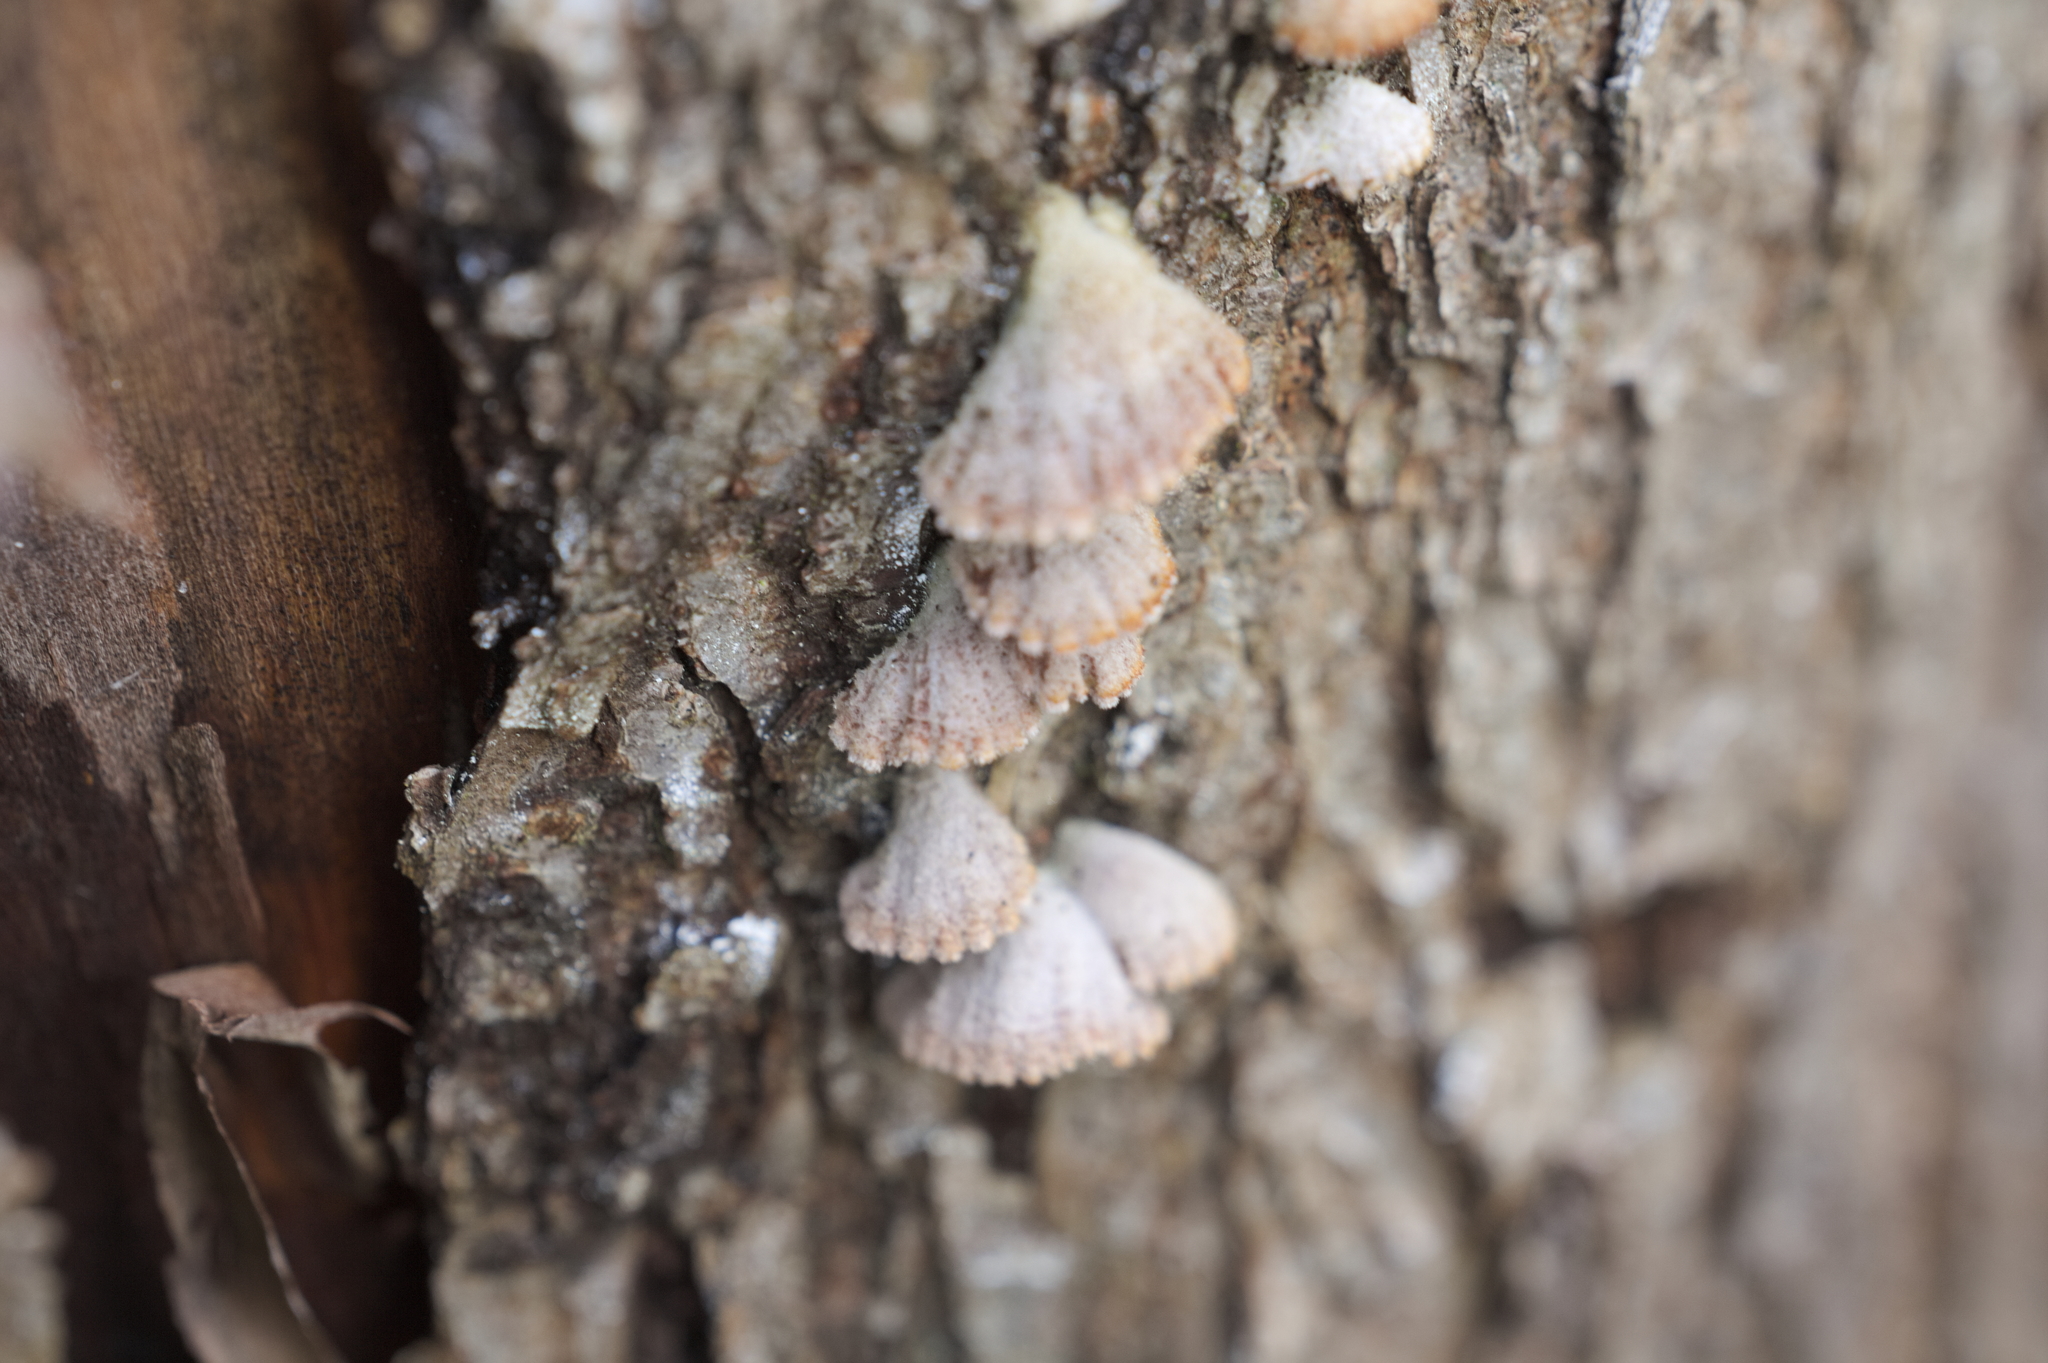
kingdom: Fungi
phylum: Basidiomycota
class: Agaricomycetes
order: Agaricales
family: Schizophyllaceae
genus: Schizophyllum
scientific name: Schizophyllum commune
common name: Common porecrust
